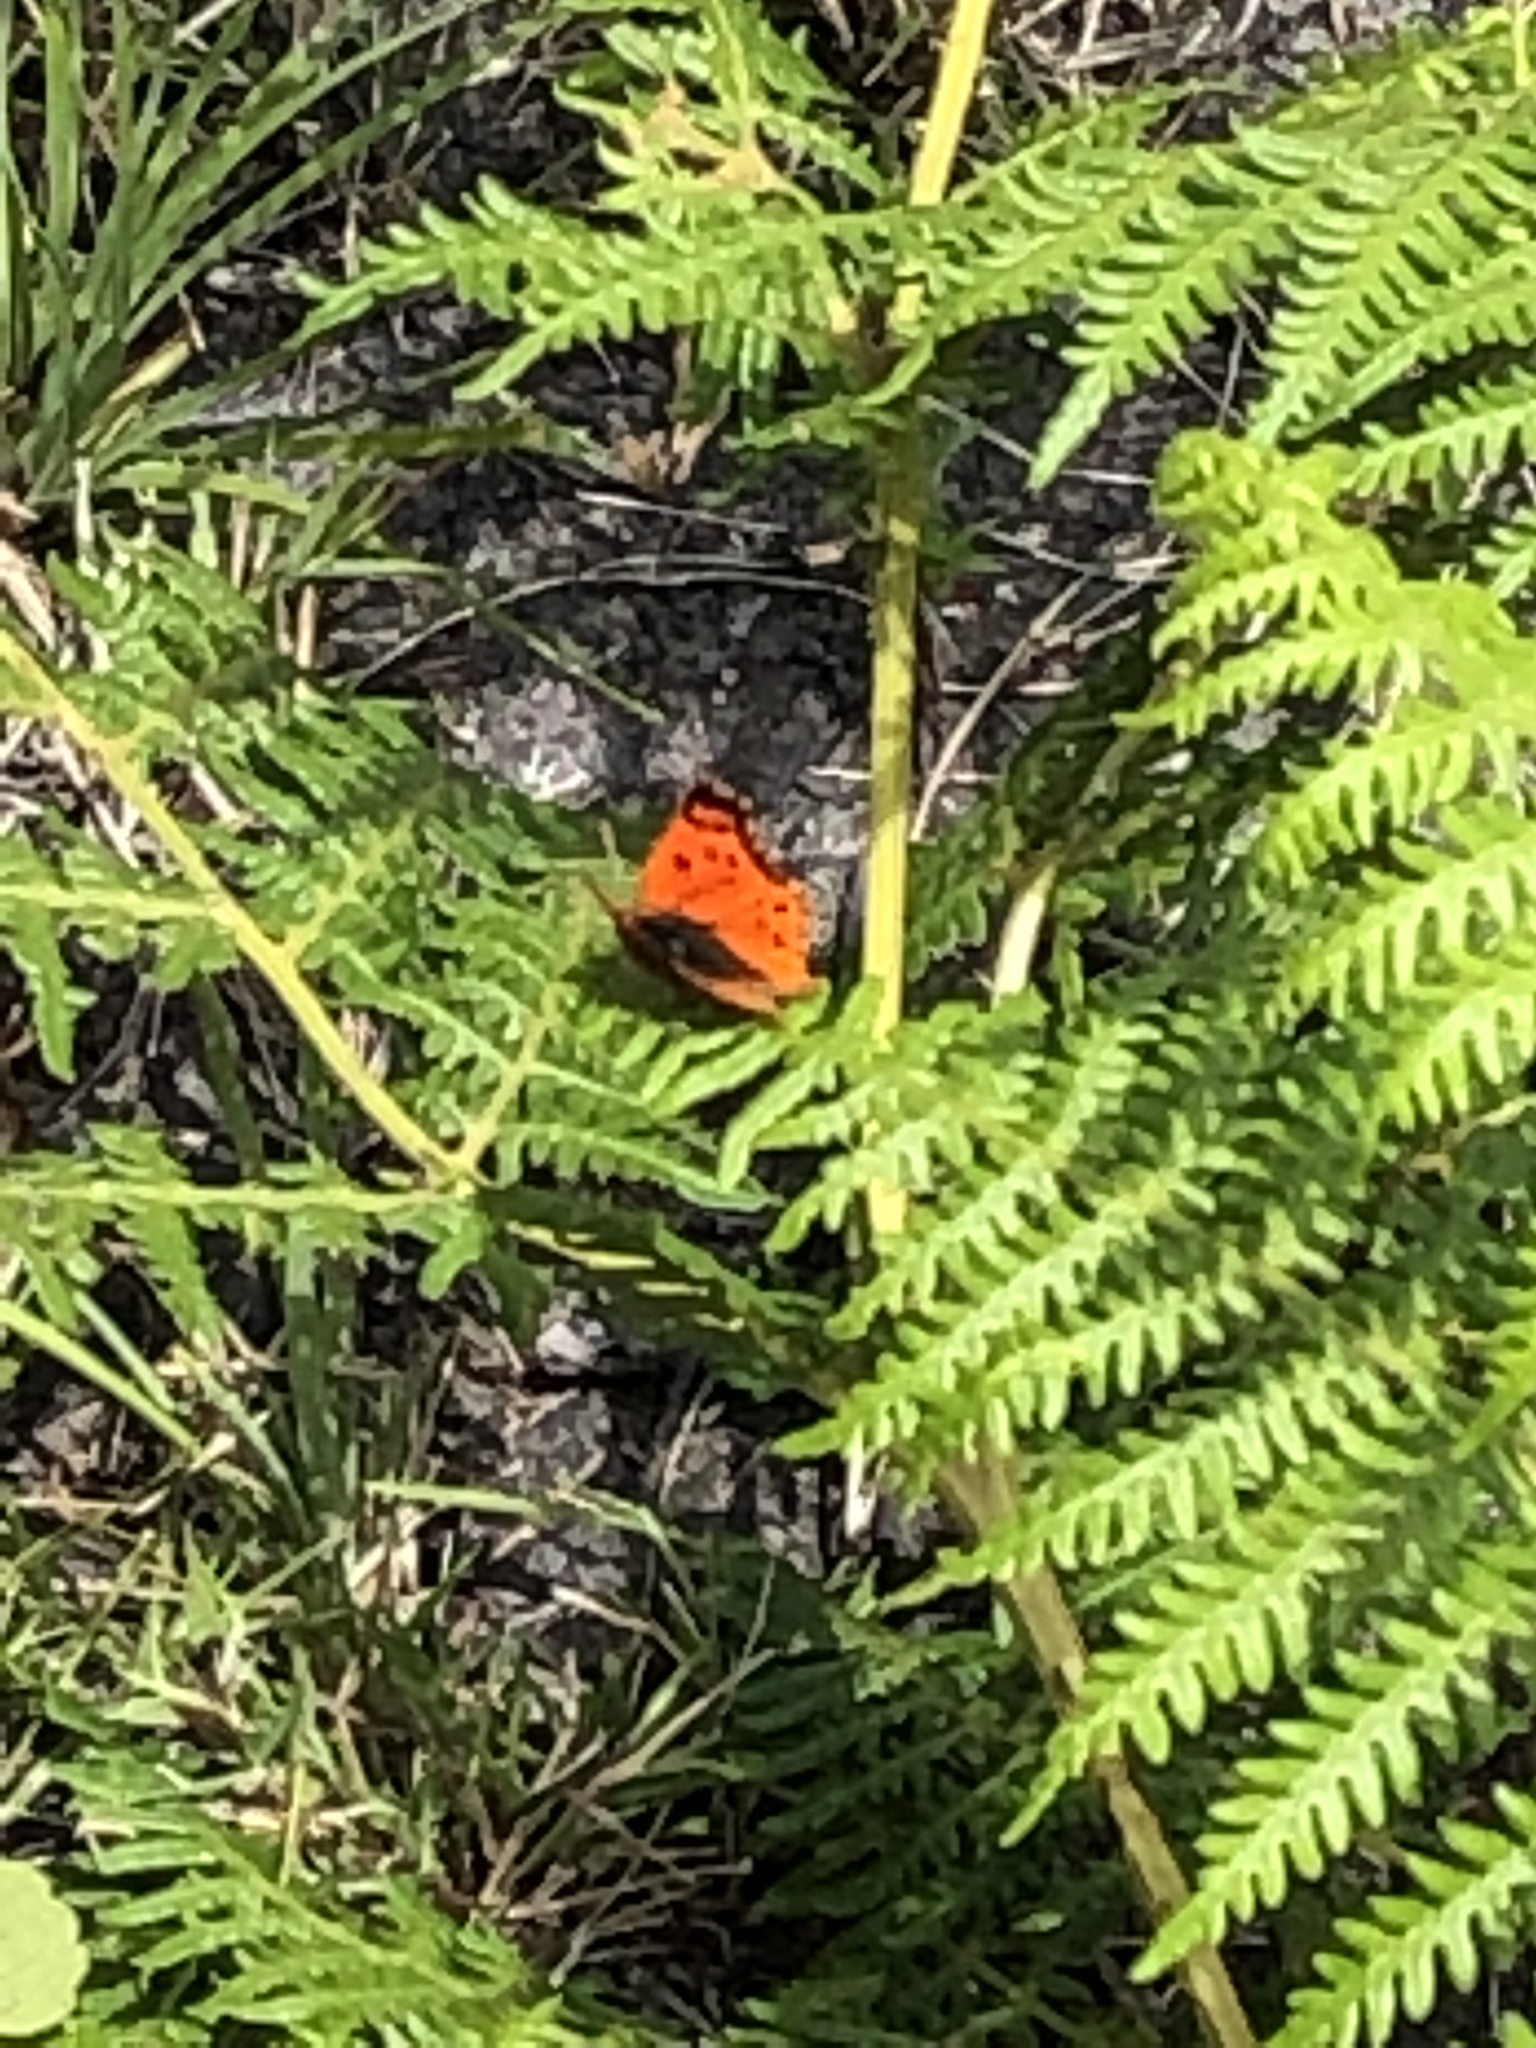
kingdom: Animalia
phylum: Arthropoda
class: Insecta
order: Lepidoptera
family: Lycaenidae
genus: Chrysoritis
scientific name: Chrysoritis
